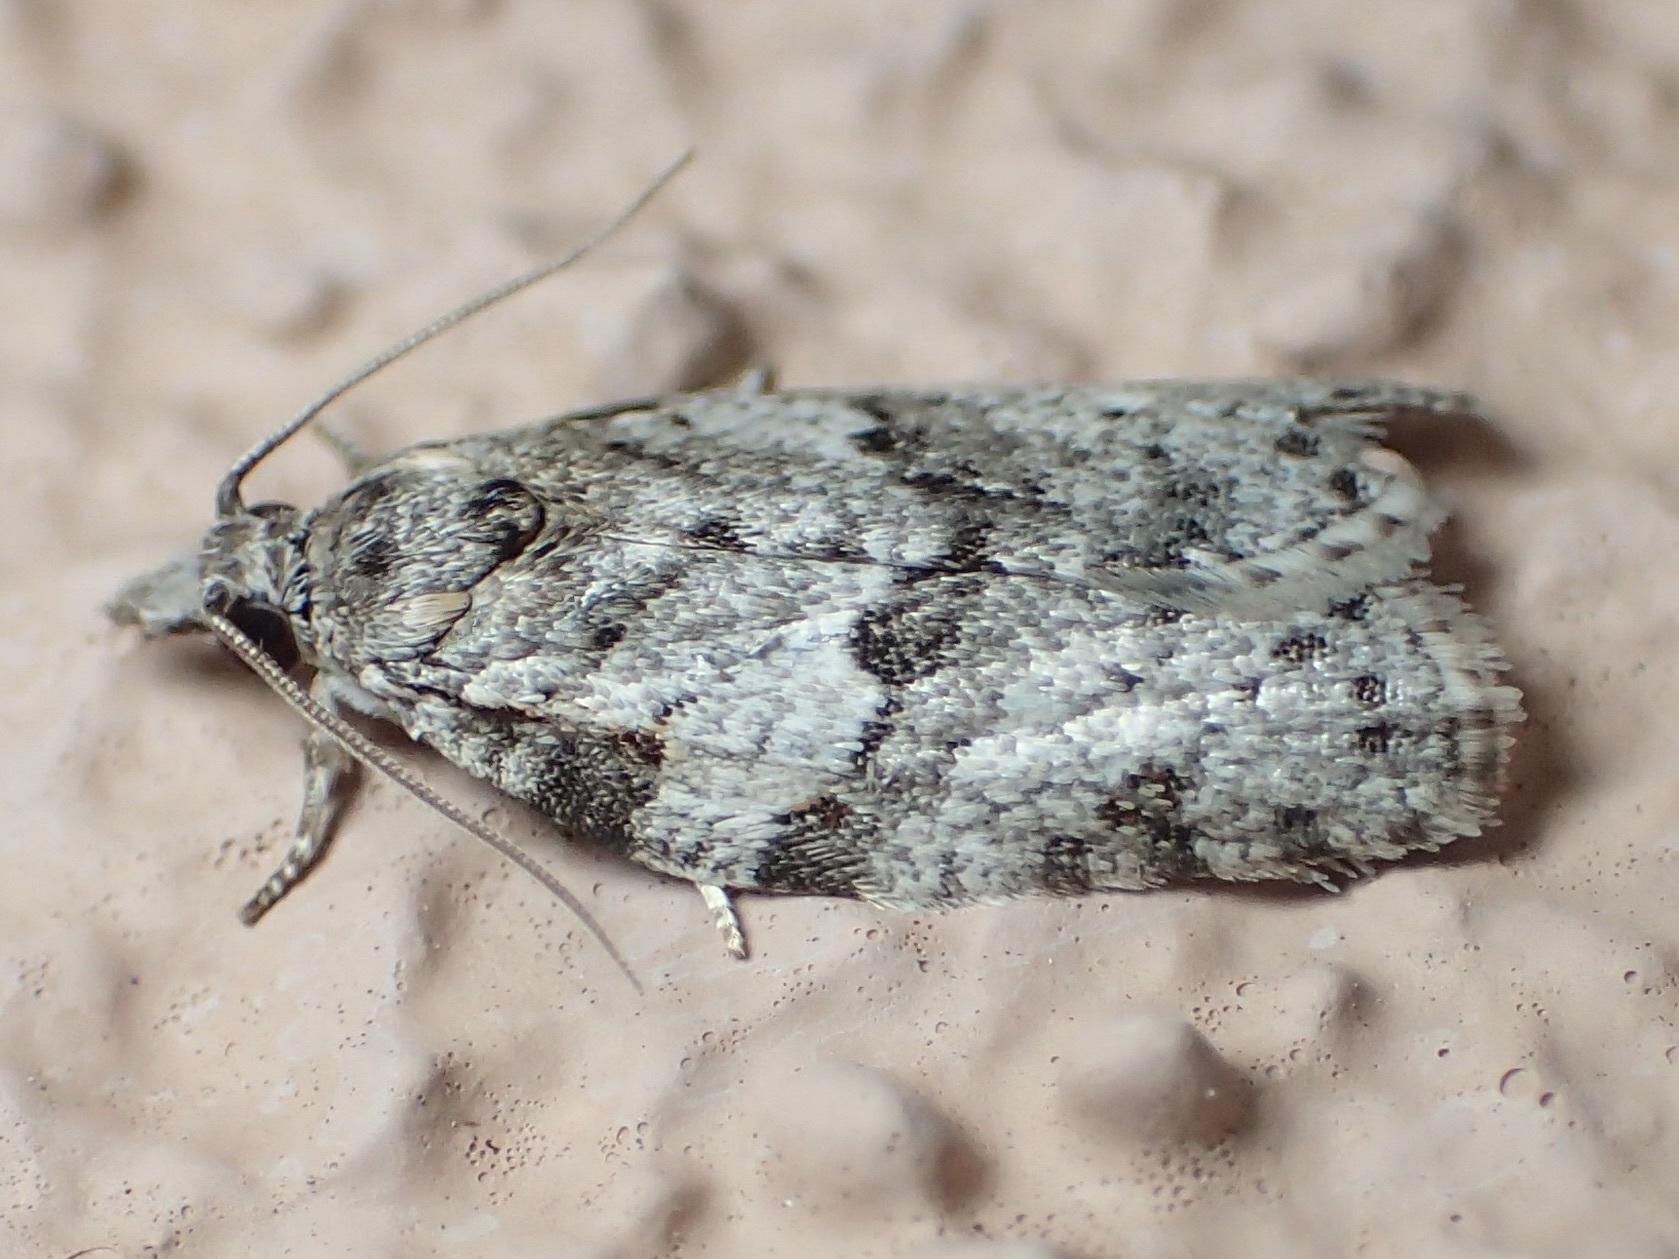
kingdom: Animalia
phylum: Arthropoda
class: Insecta
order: Lepidoptera
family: Tortricidae
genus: Isotenes
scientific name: Isotenes miserana
